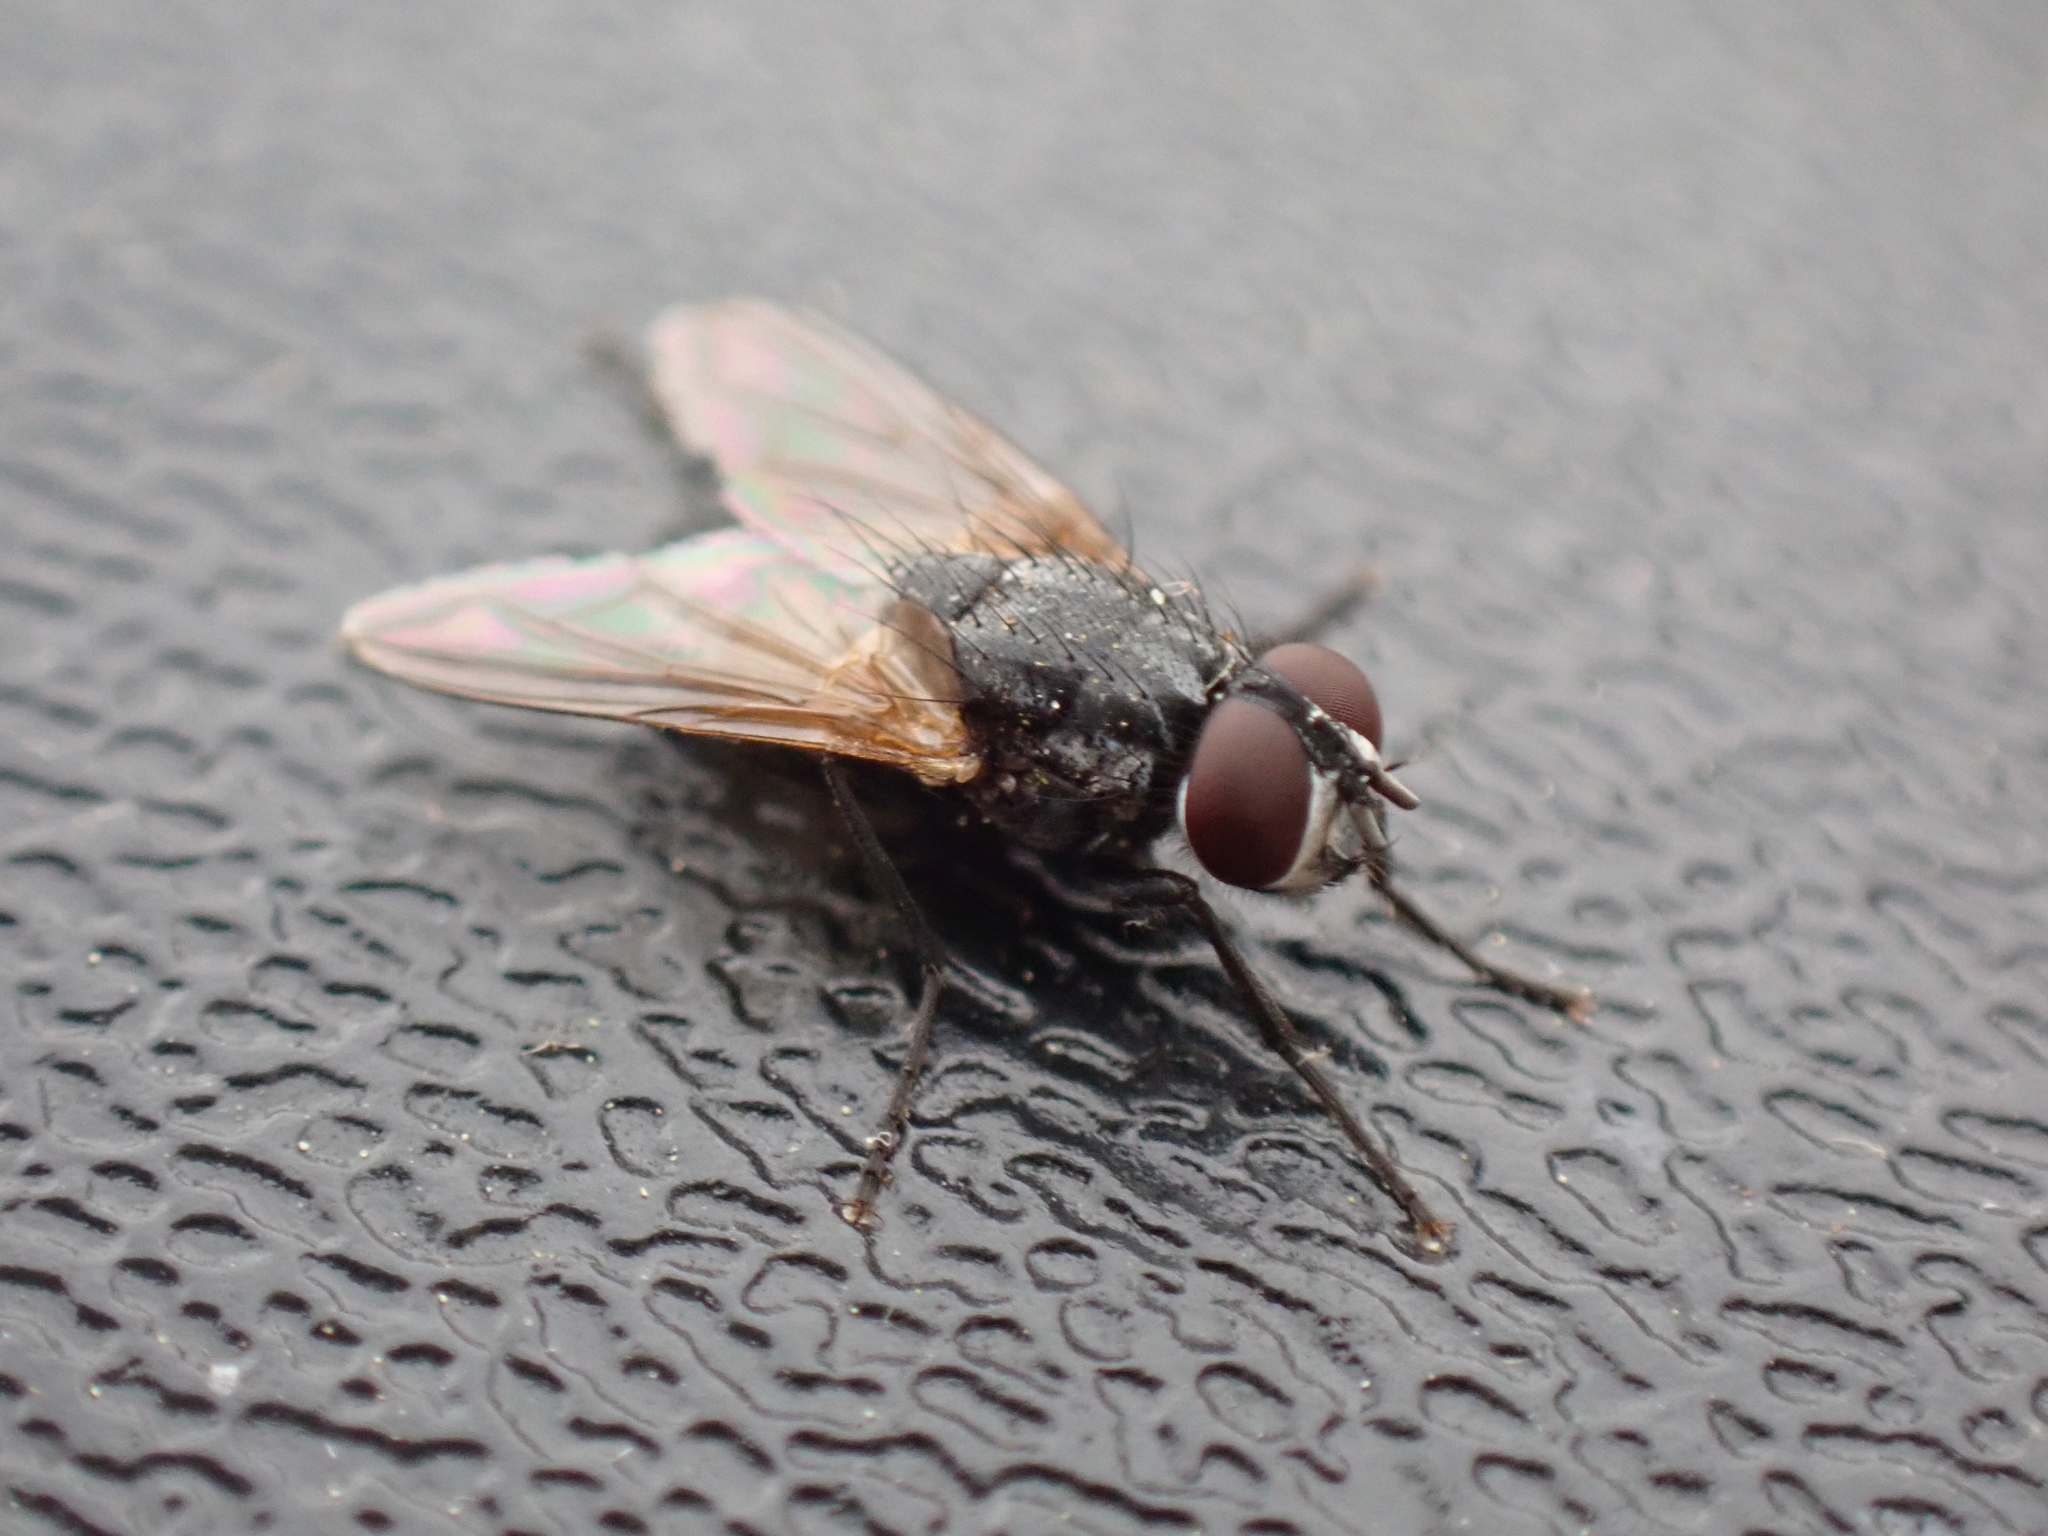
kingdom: Animalia
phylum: Arthropoda
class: Insecta
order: Diptera
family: Muscidae
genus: Musca
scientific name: Musca domestica
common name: House fly
